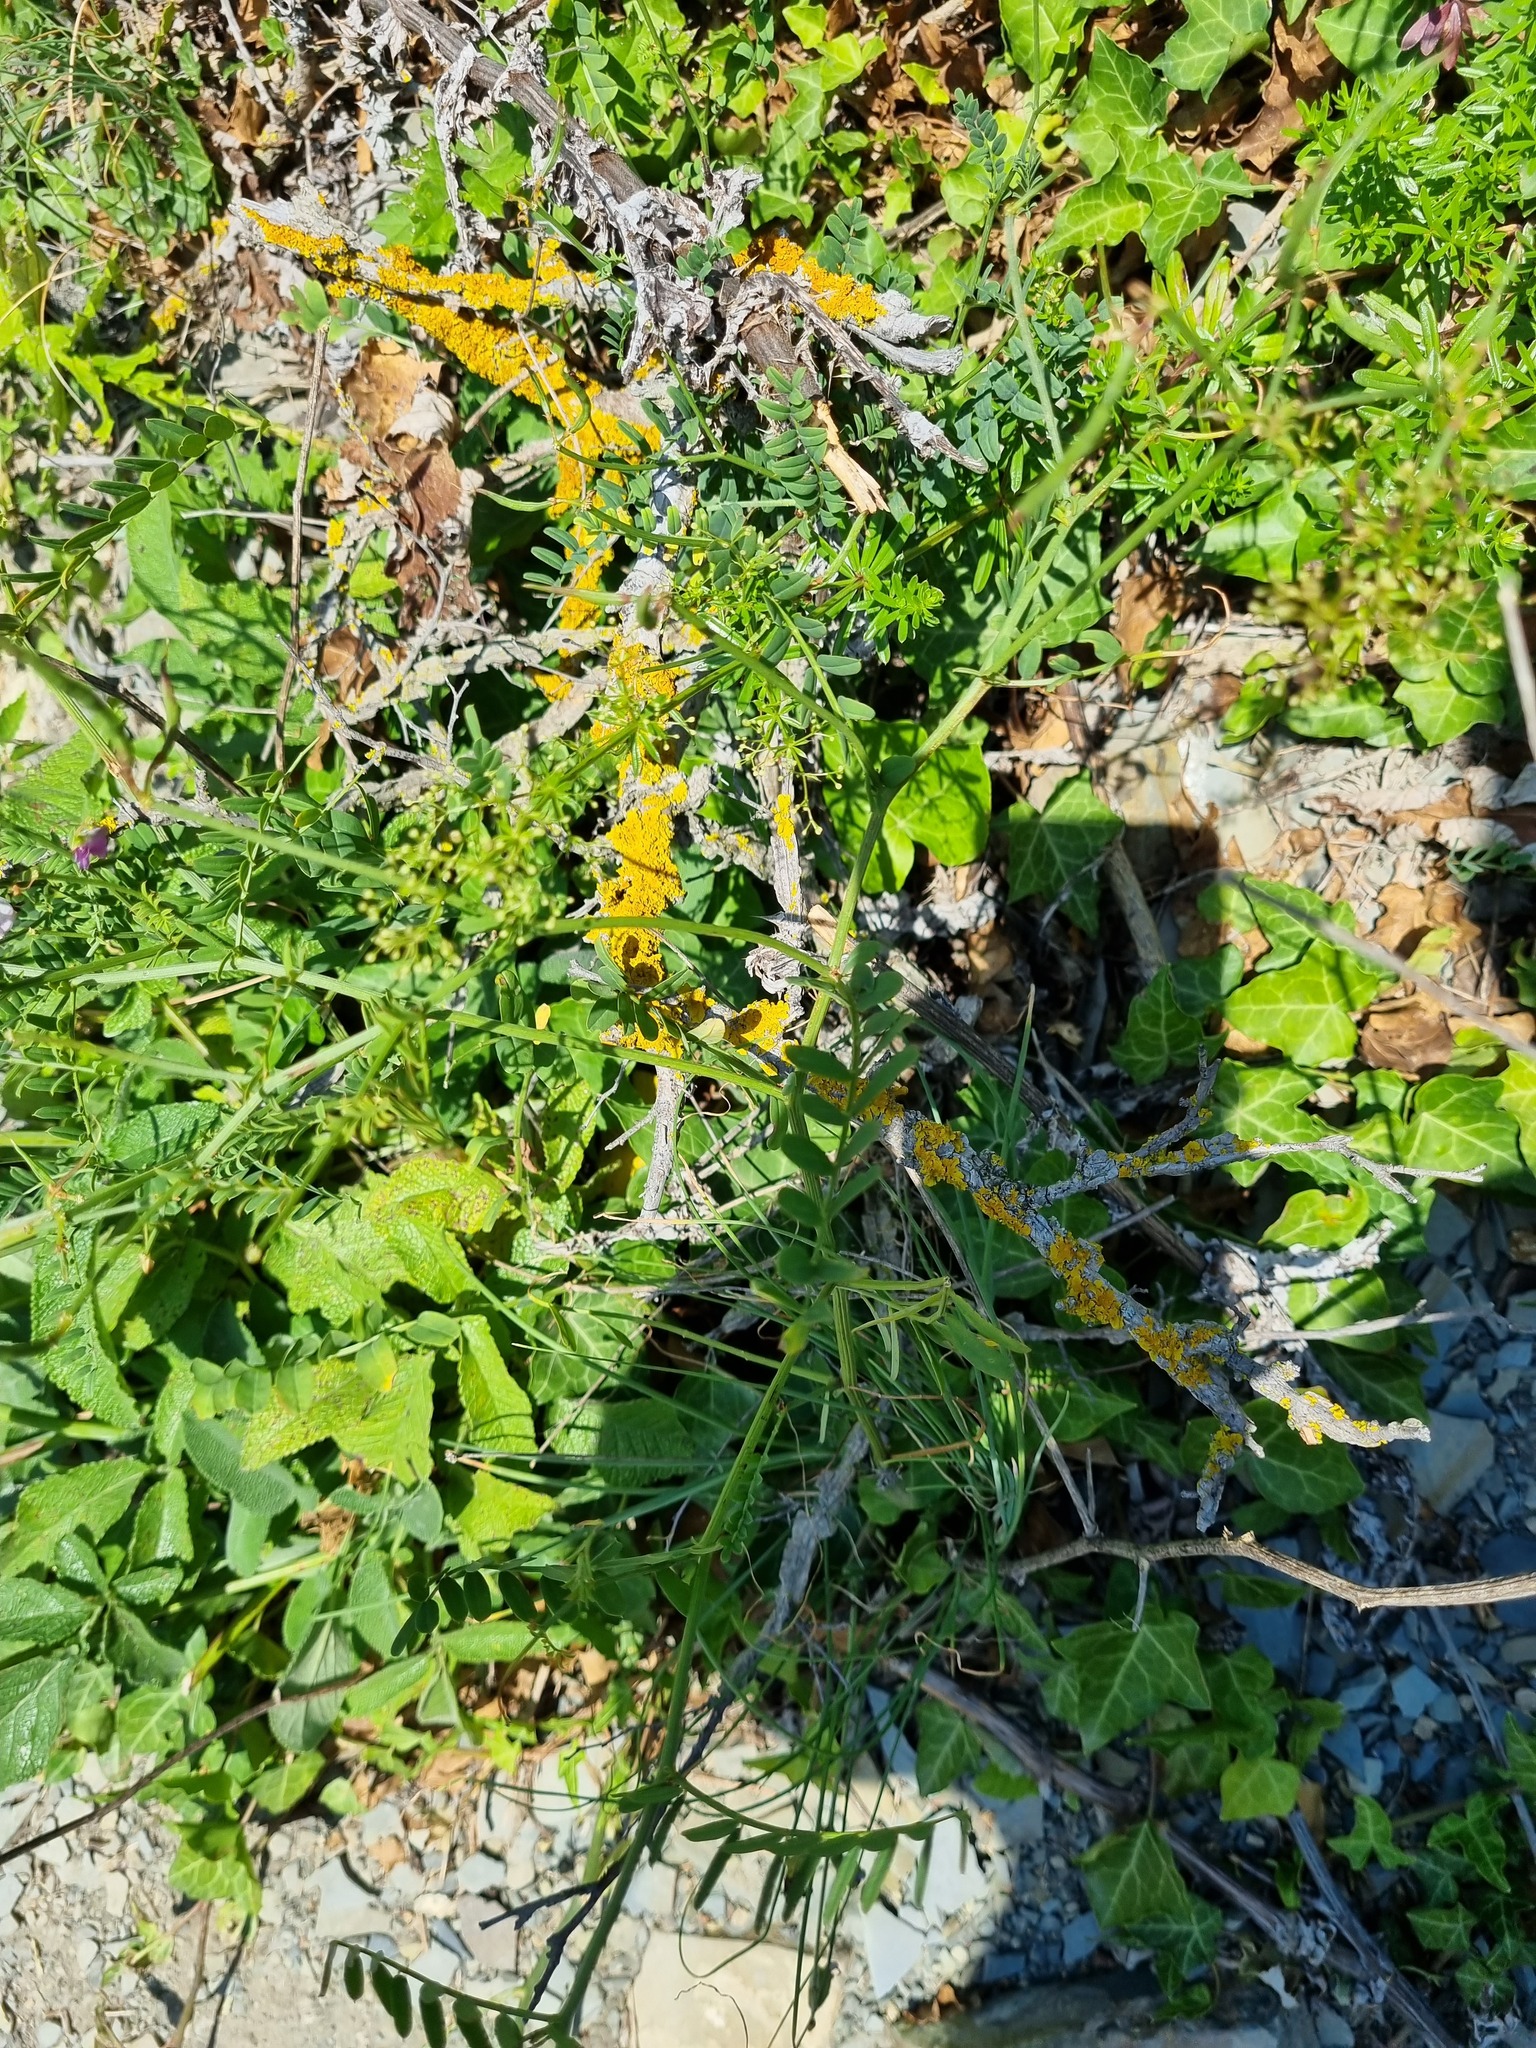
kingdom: Plantae
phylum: Tracheophyta
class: Magnoliopsida
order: Fabales
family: Fabaceae
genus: Coronilla
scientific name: Coronilla varia
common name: Crownvetch
